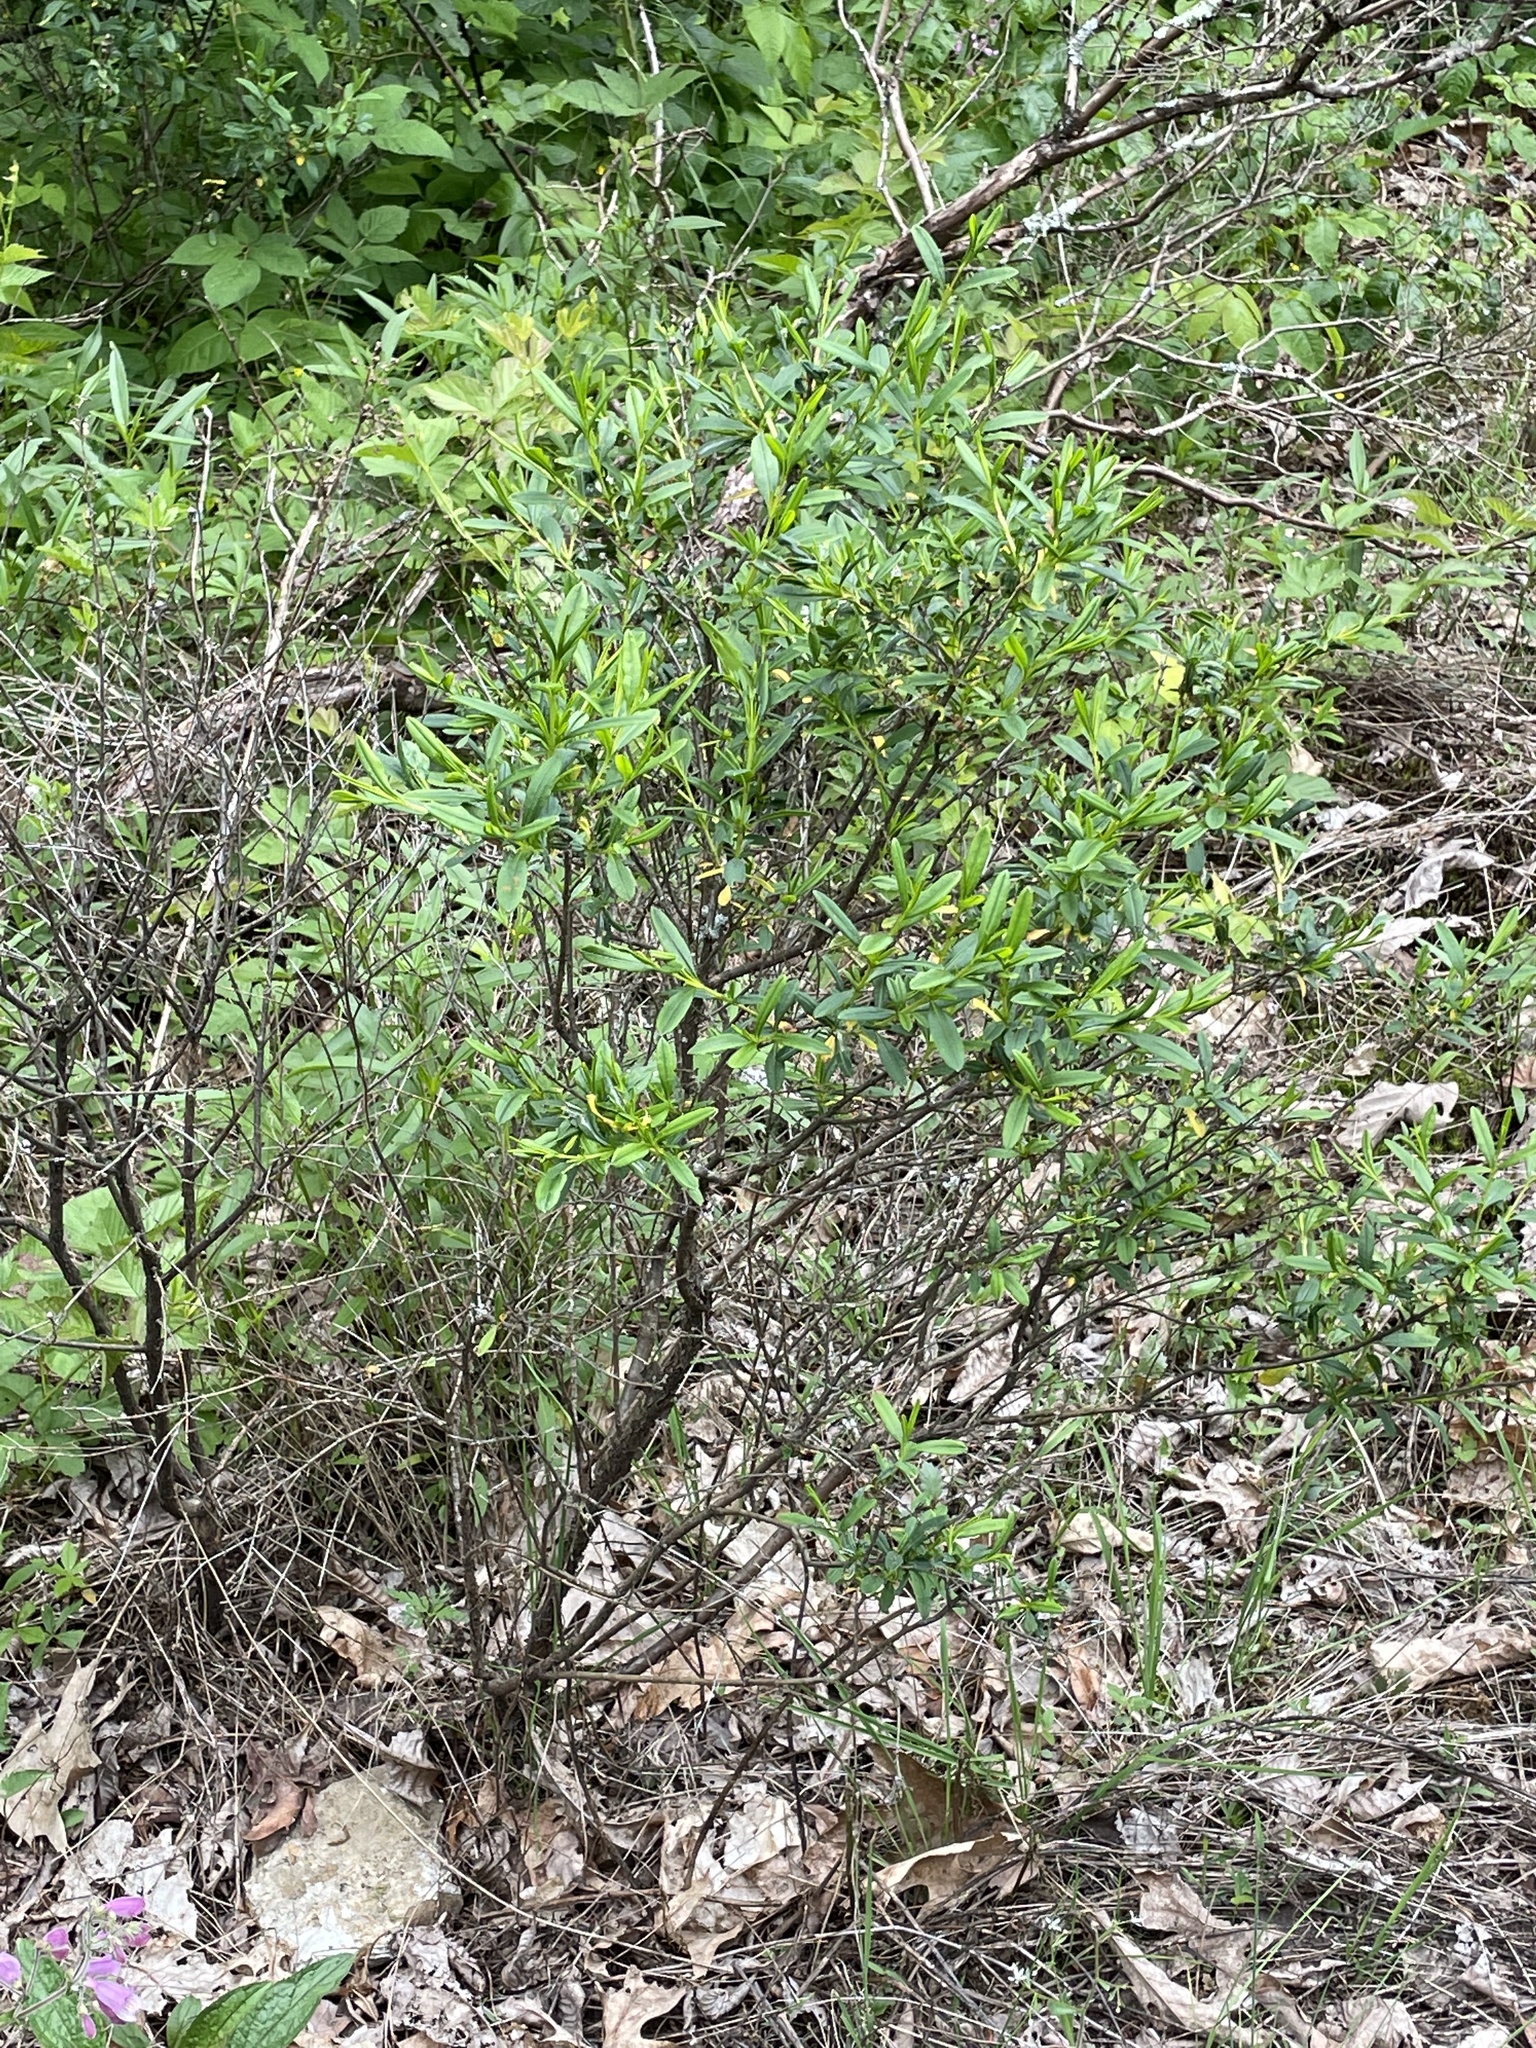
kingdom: Plantae
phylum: Tracheophyta
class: Magnoliopsida
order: Malpighiales
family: Hypericaceae
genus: Hypericum
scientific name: Hypericum prolificum
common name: Shrubby st. john's-wort
